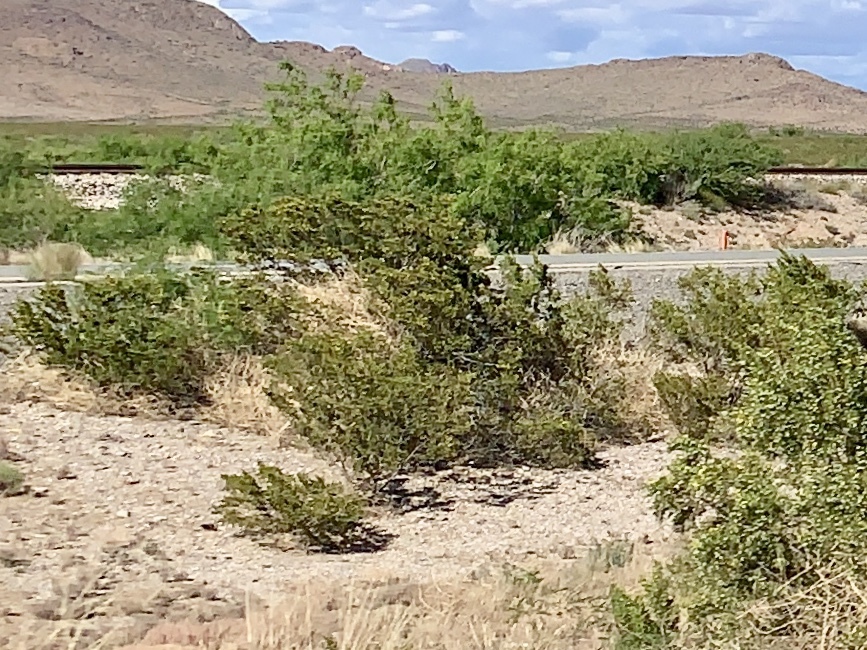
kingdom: Plantae
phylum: Tracheophyta
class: Magnoliopsida
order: Zygophyllales
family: Zygophyllaceae
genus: Larrea
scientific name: Larrea tridentata
